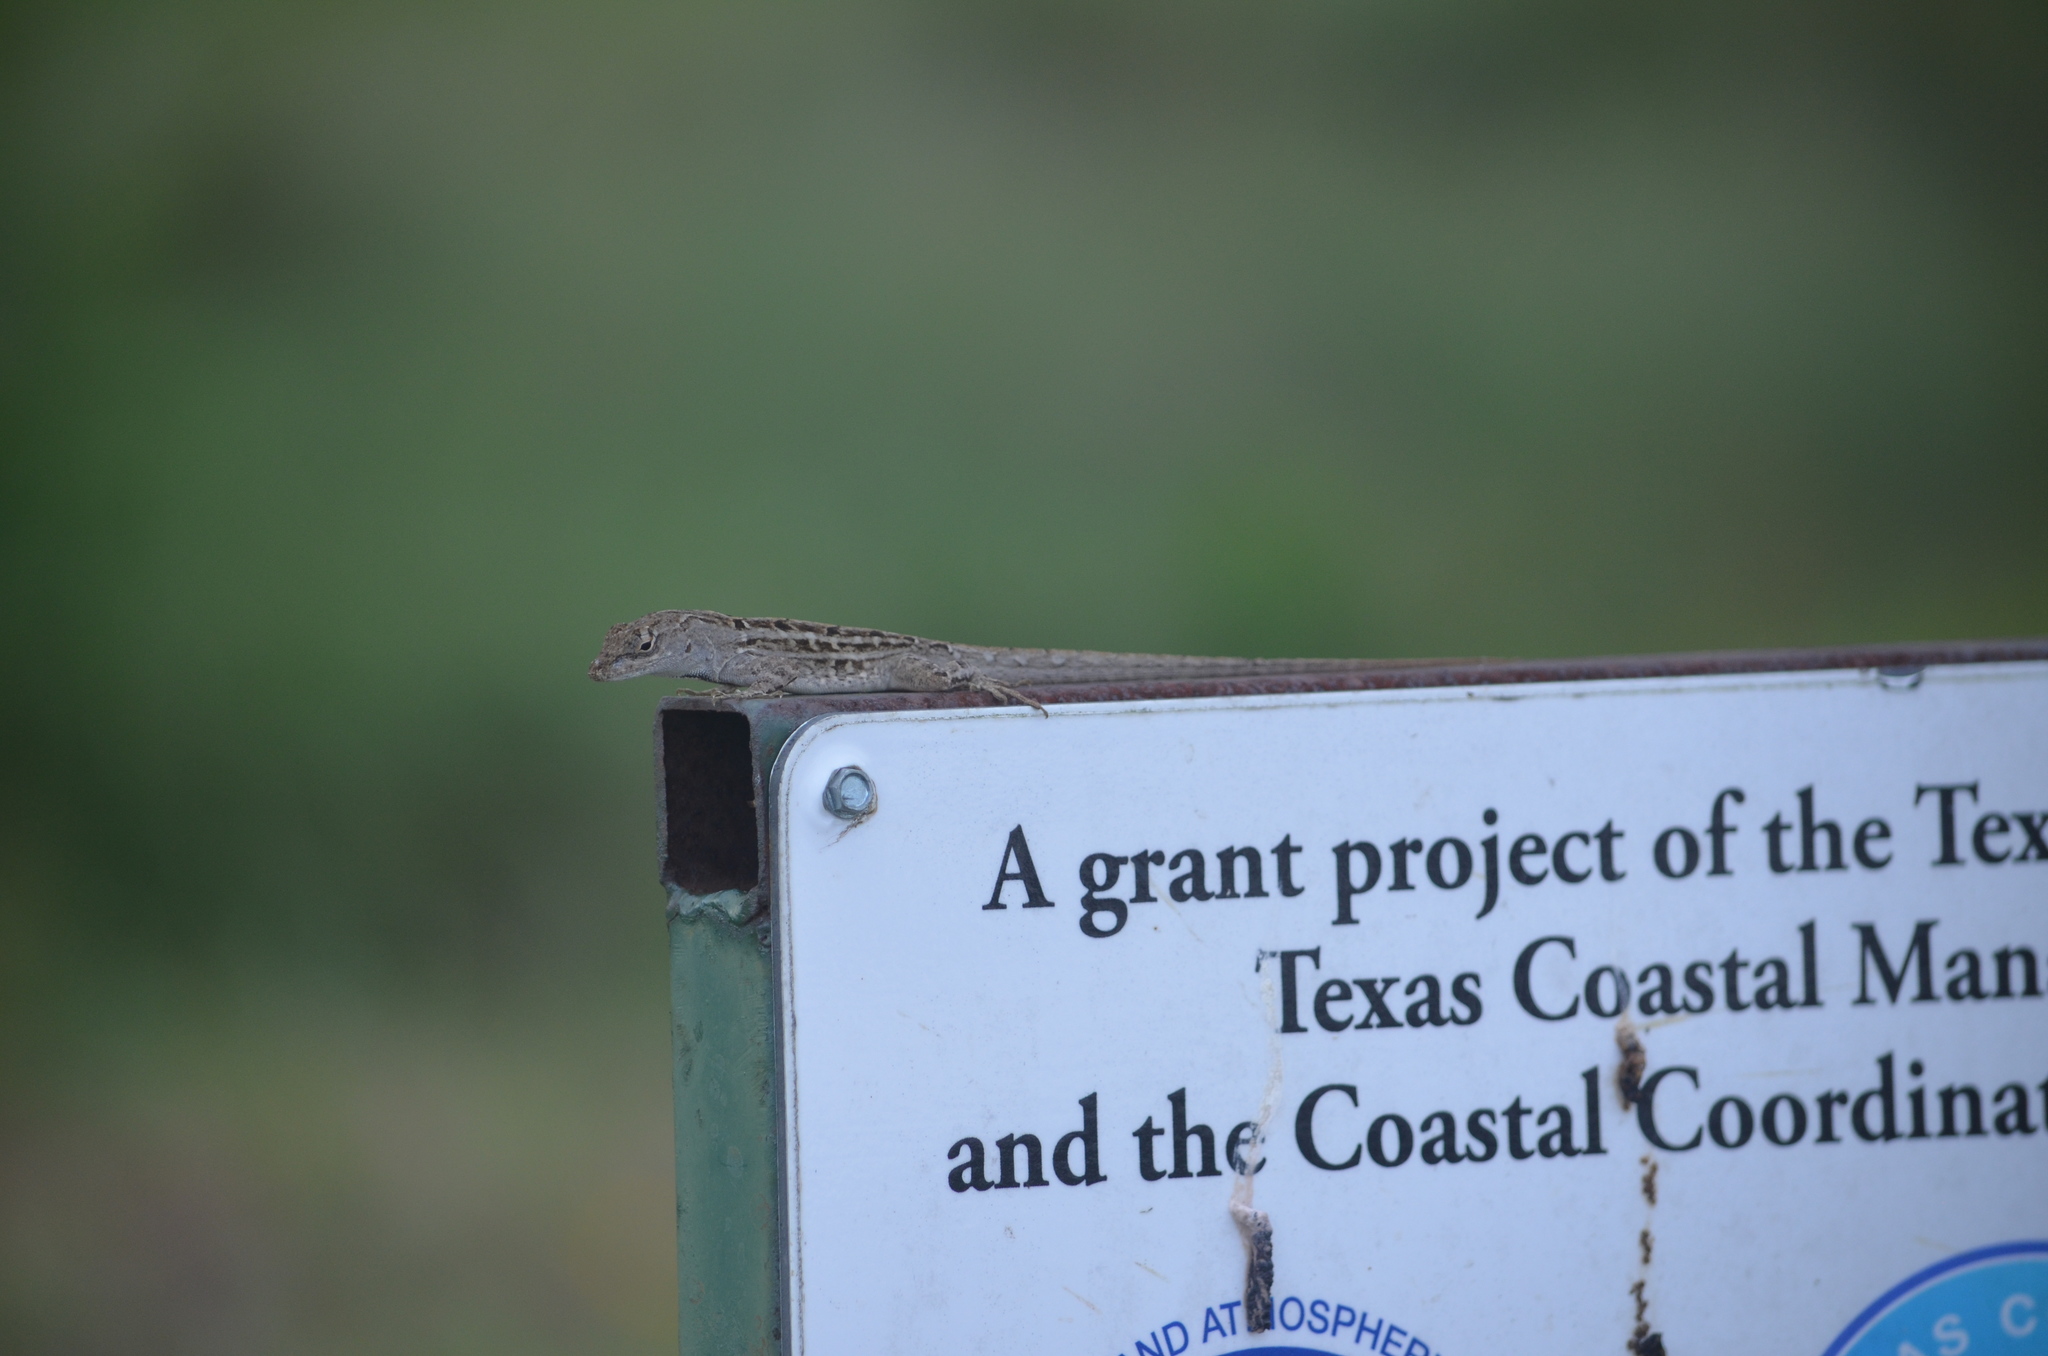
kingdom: Animalia
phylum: Chordata
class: Squamata
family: Dactyloidae
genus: Anolis
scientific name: Anolis sagrei
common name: Brown anole
